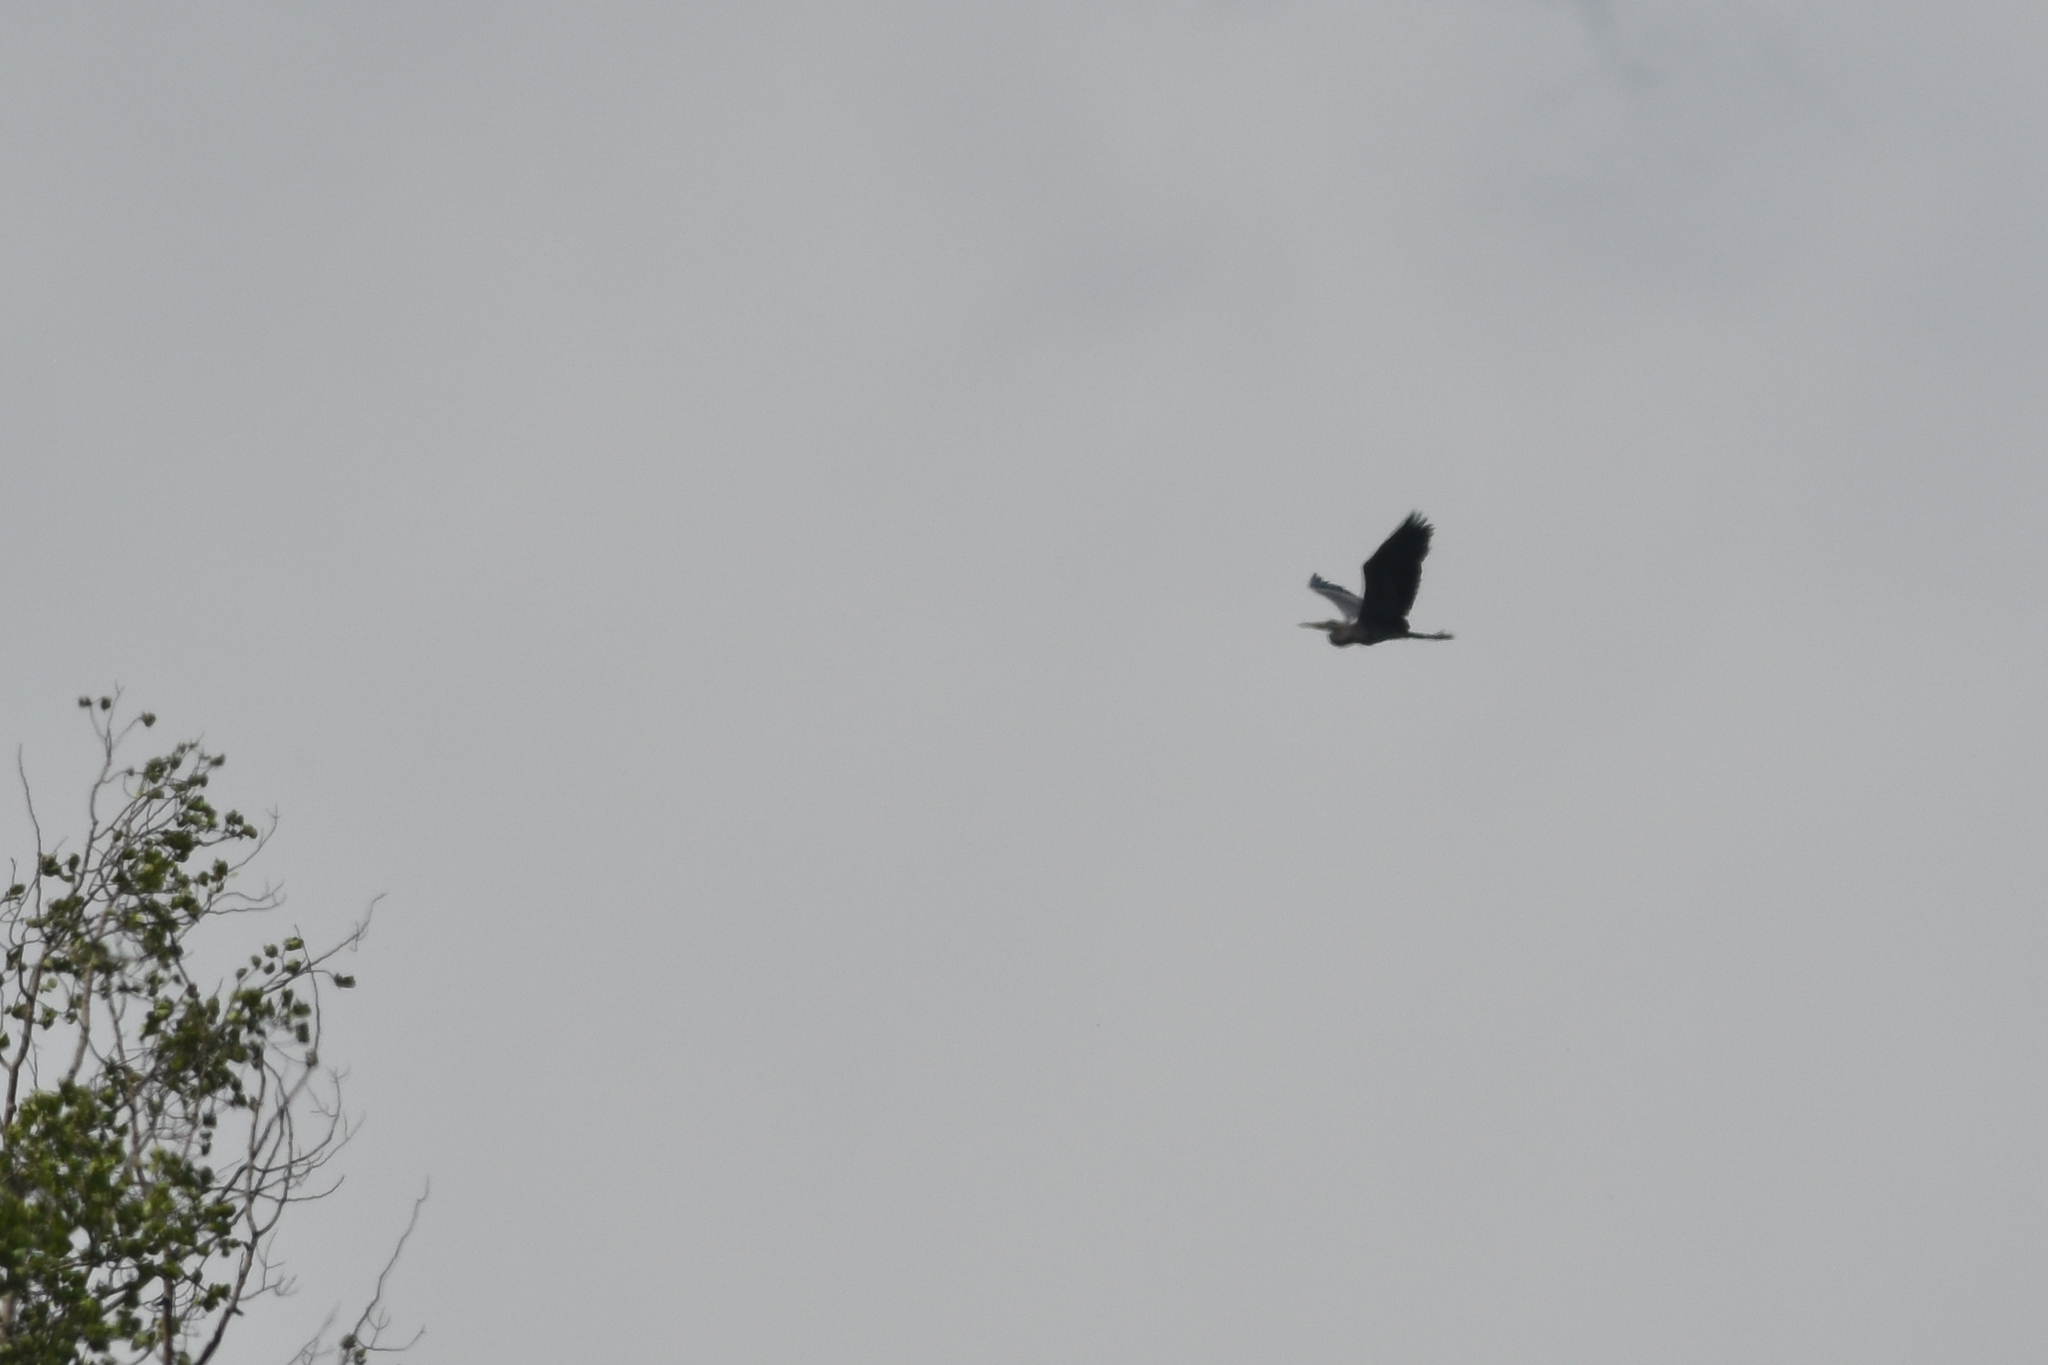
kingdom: Animalia
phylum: Chordata
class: Aves
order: Pelecaniformes
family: Ardeidae
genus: Ardea
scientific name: Ardea herodias
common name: Great blue heron
